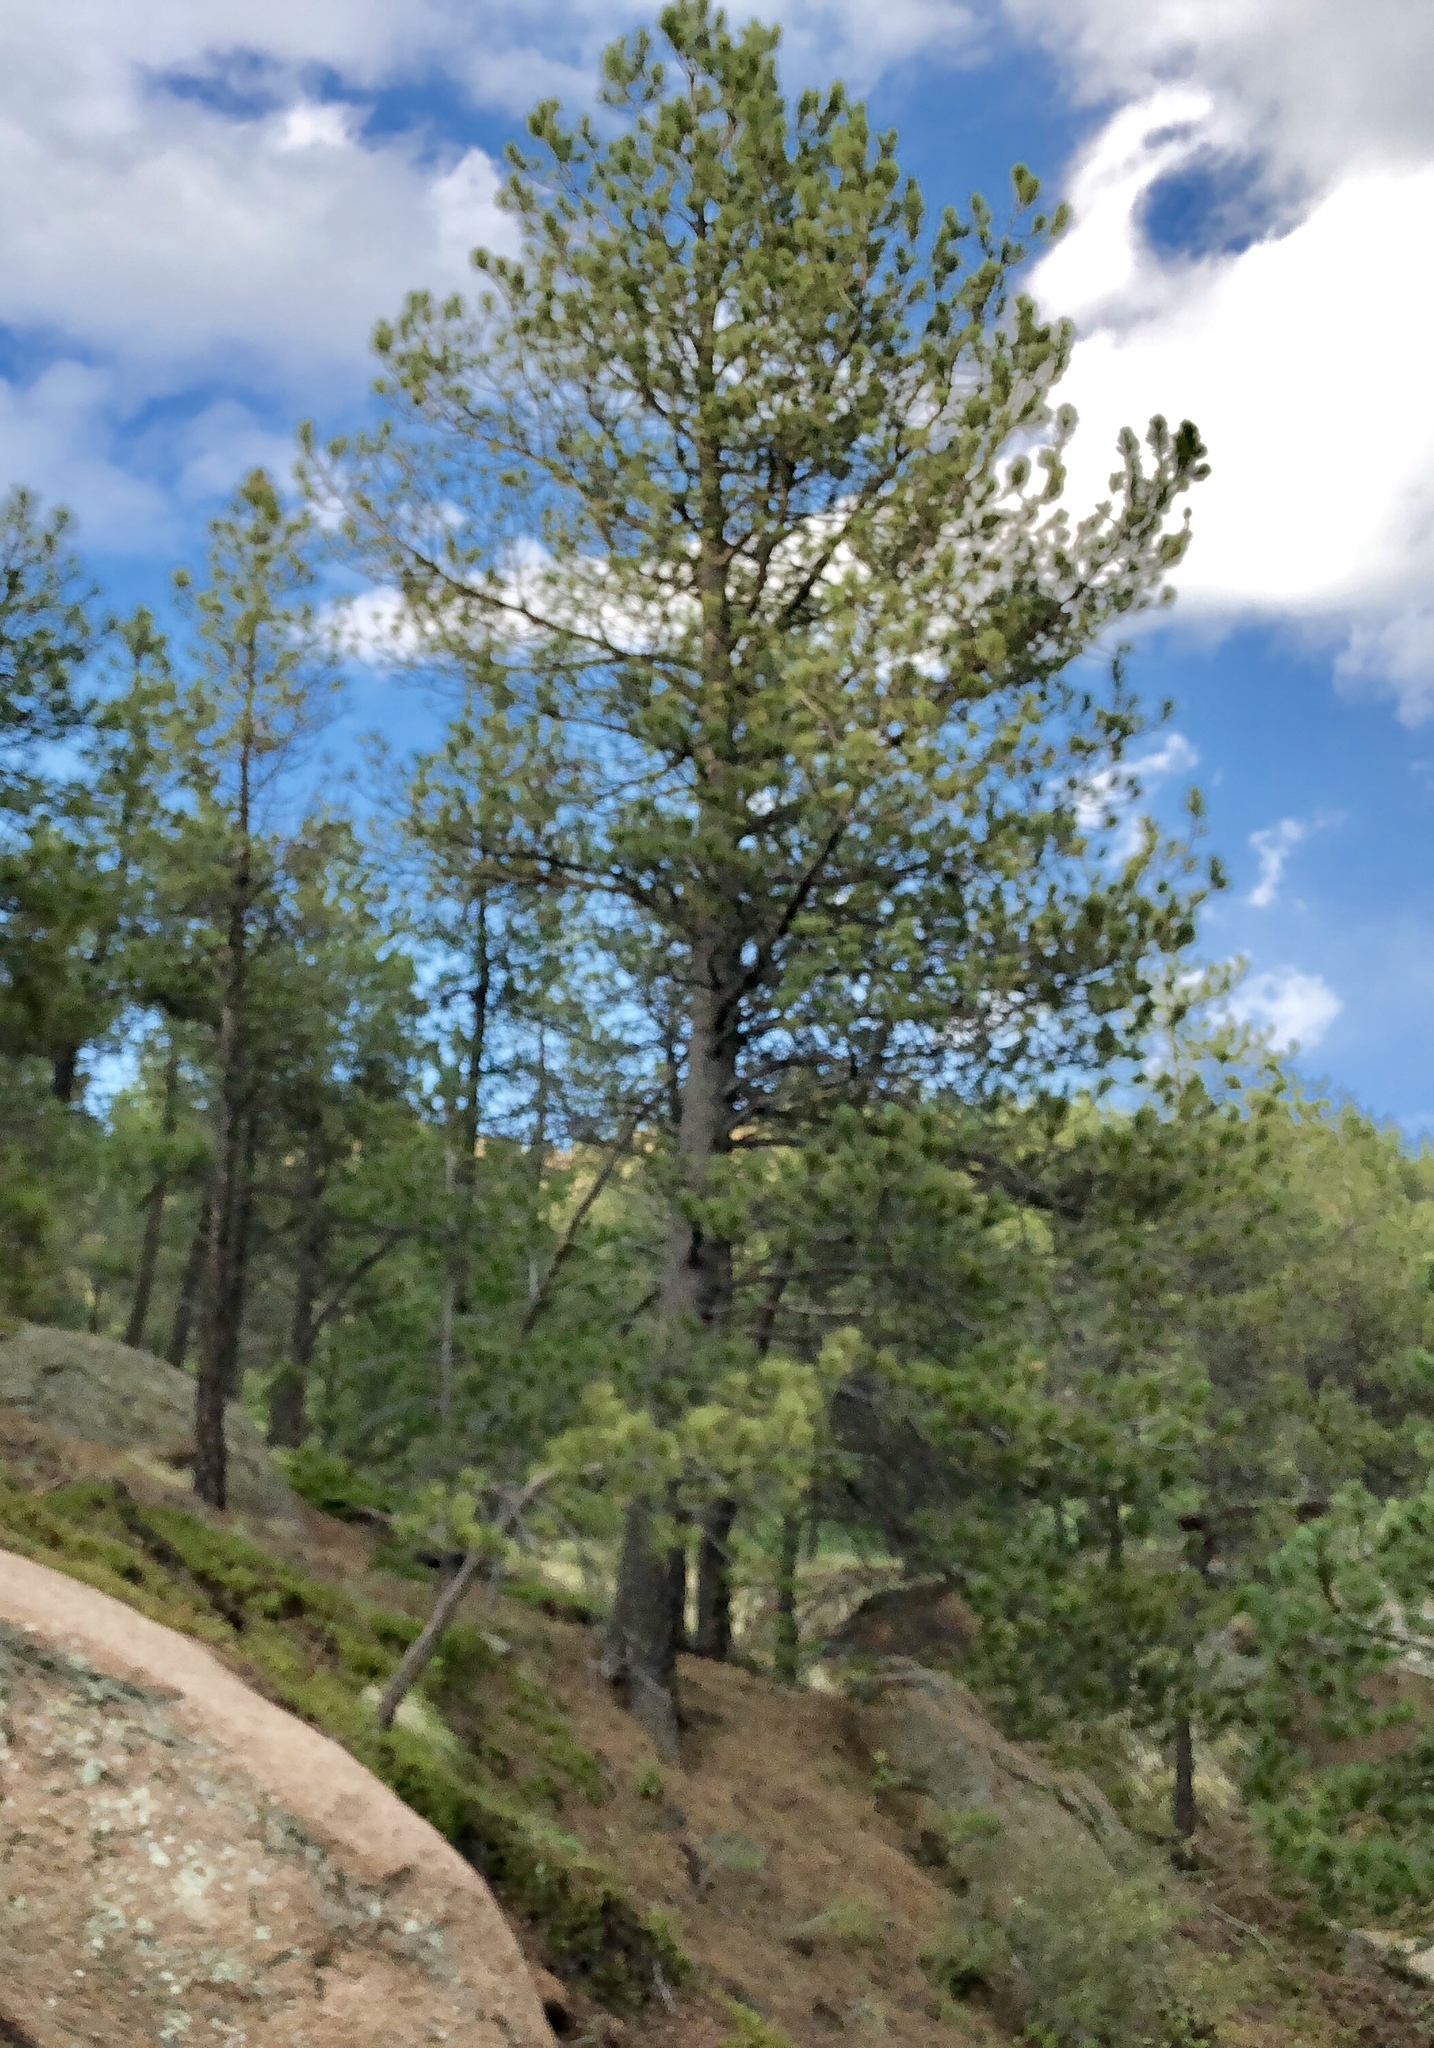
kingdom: Plantae
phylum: Tracheophyta
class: Pinopsida
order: Pinales
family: Pinaceae
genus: Pinus
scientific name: Pinus ponderosa
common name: Western yellow-pine
